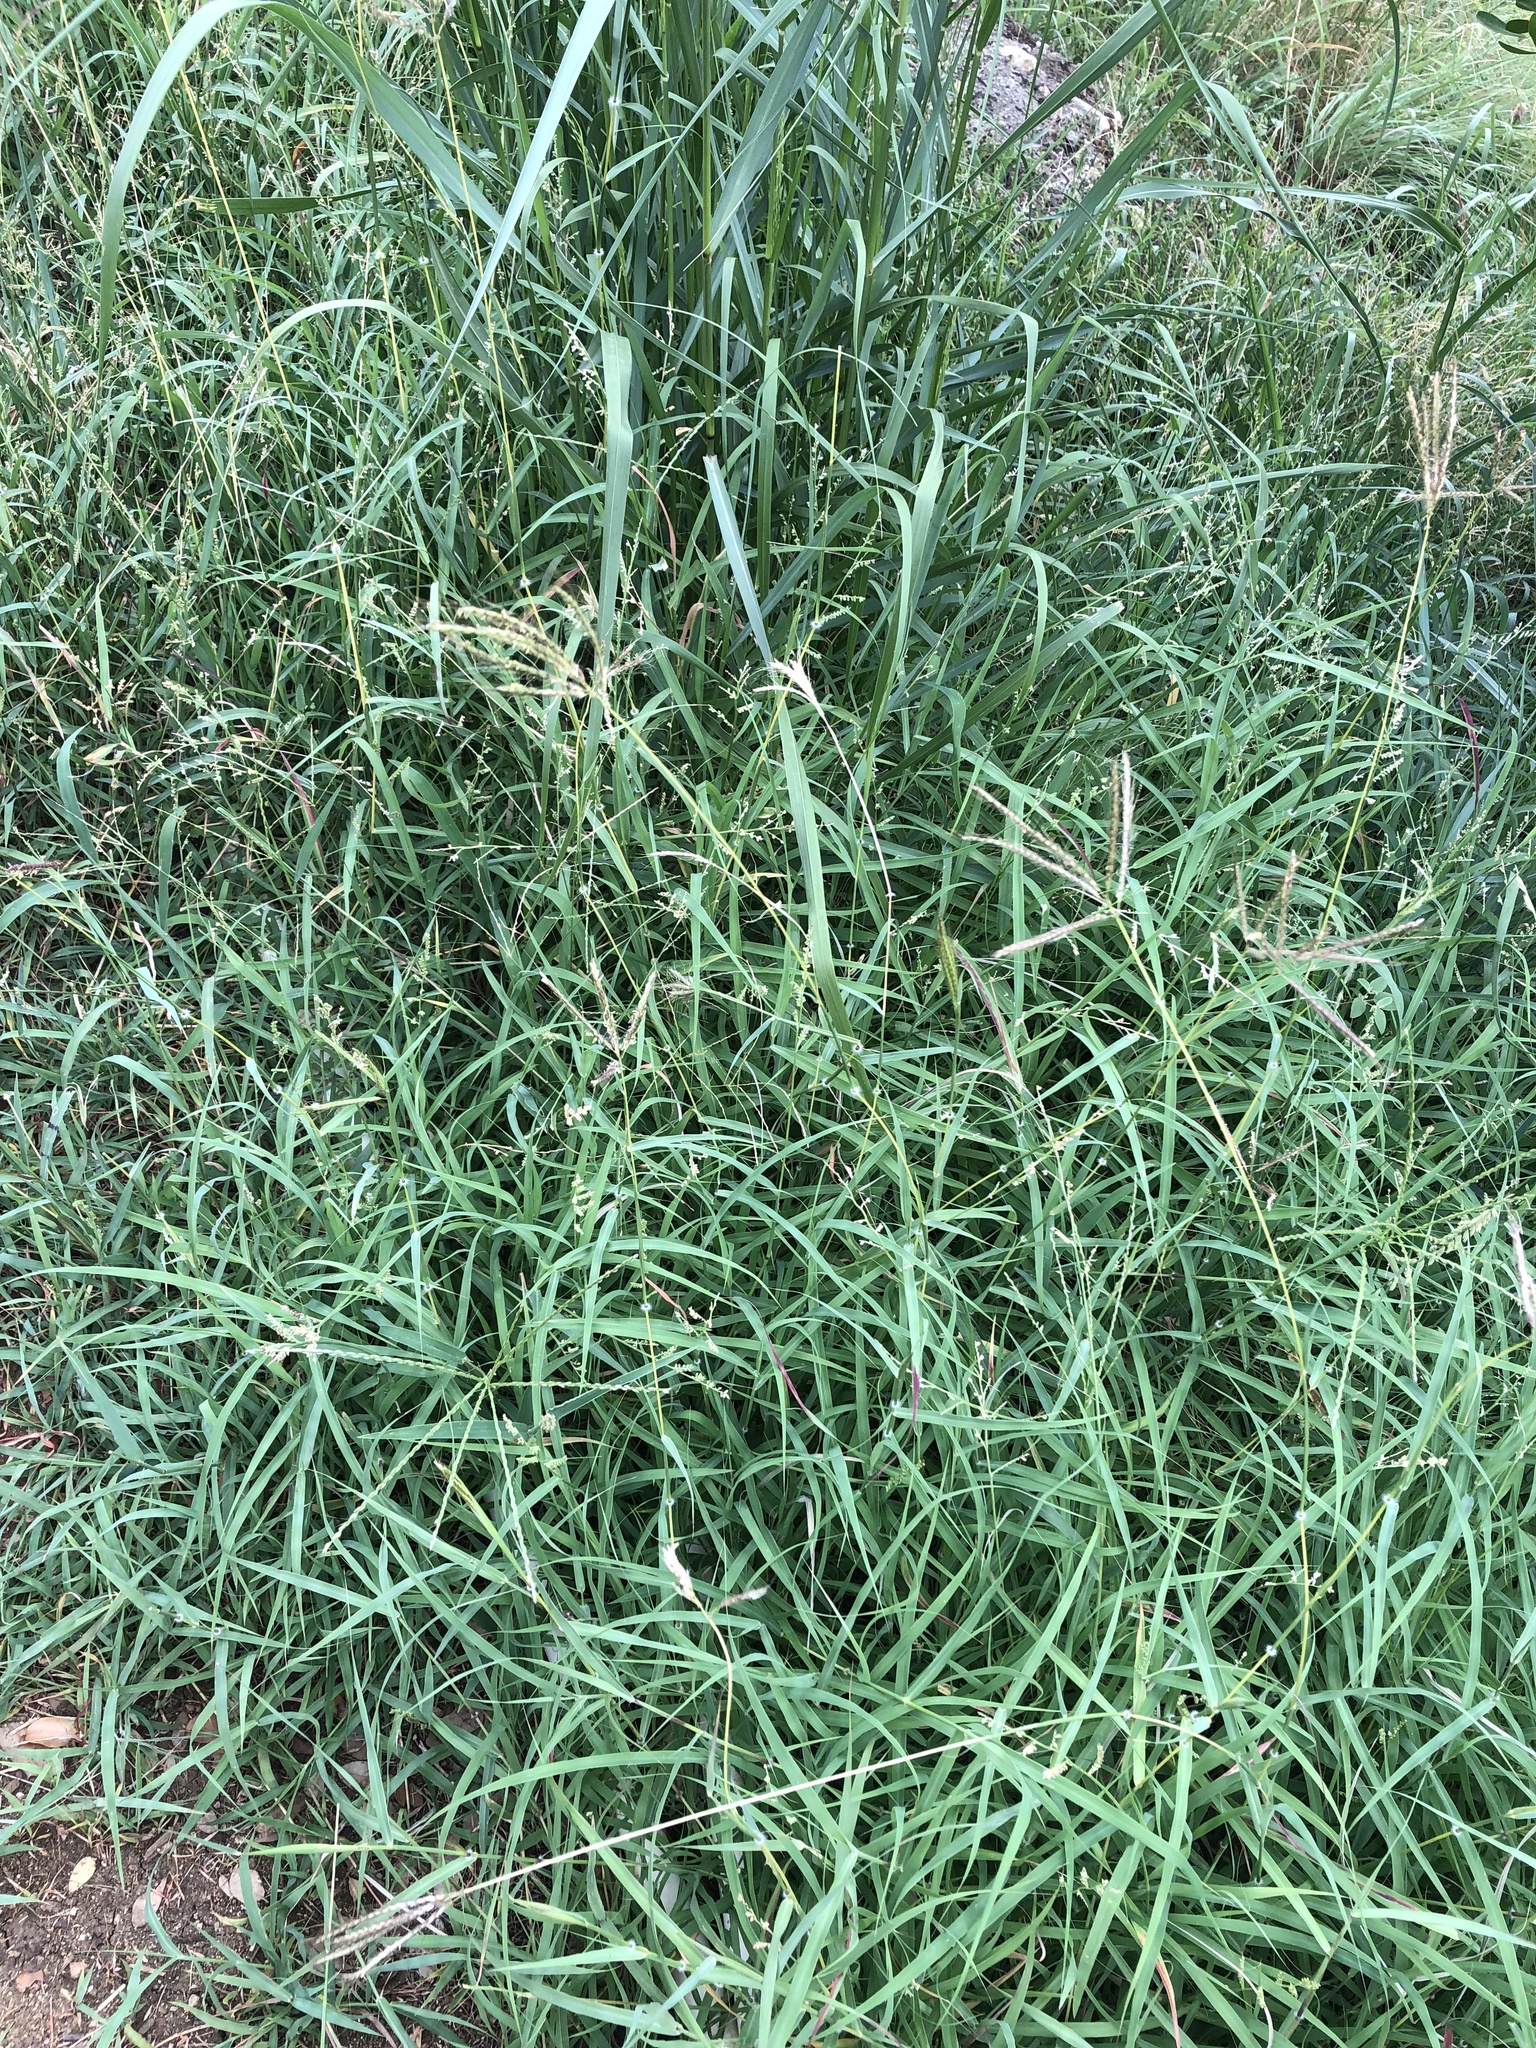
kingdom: Plantae
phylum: Tracheophyta
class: Liliopsida
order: Poales
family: Poaceae
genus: Dichanthium
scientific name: Dichanthium annulatum
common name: Kleberg's bluestem
